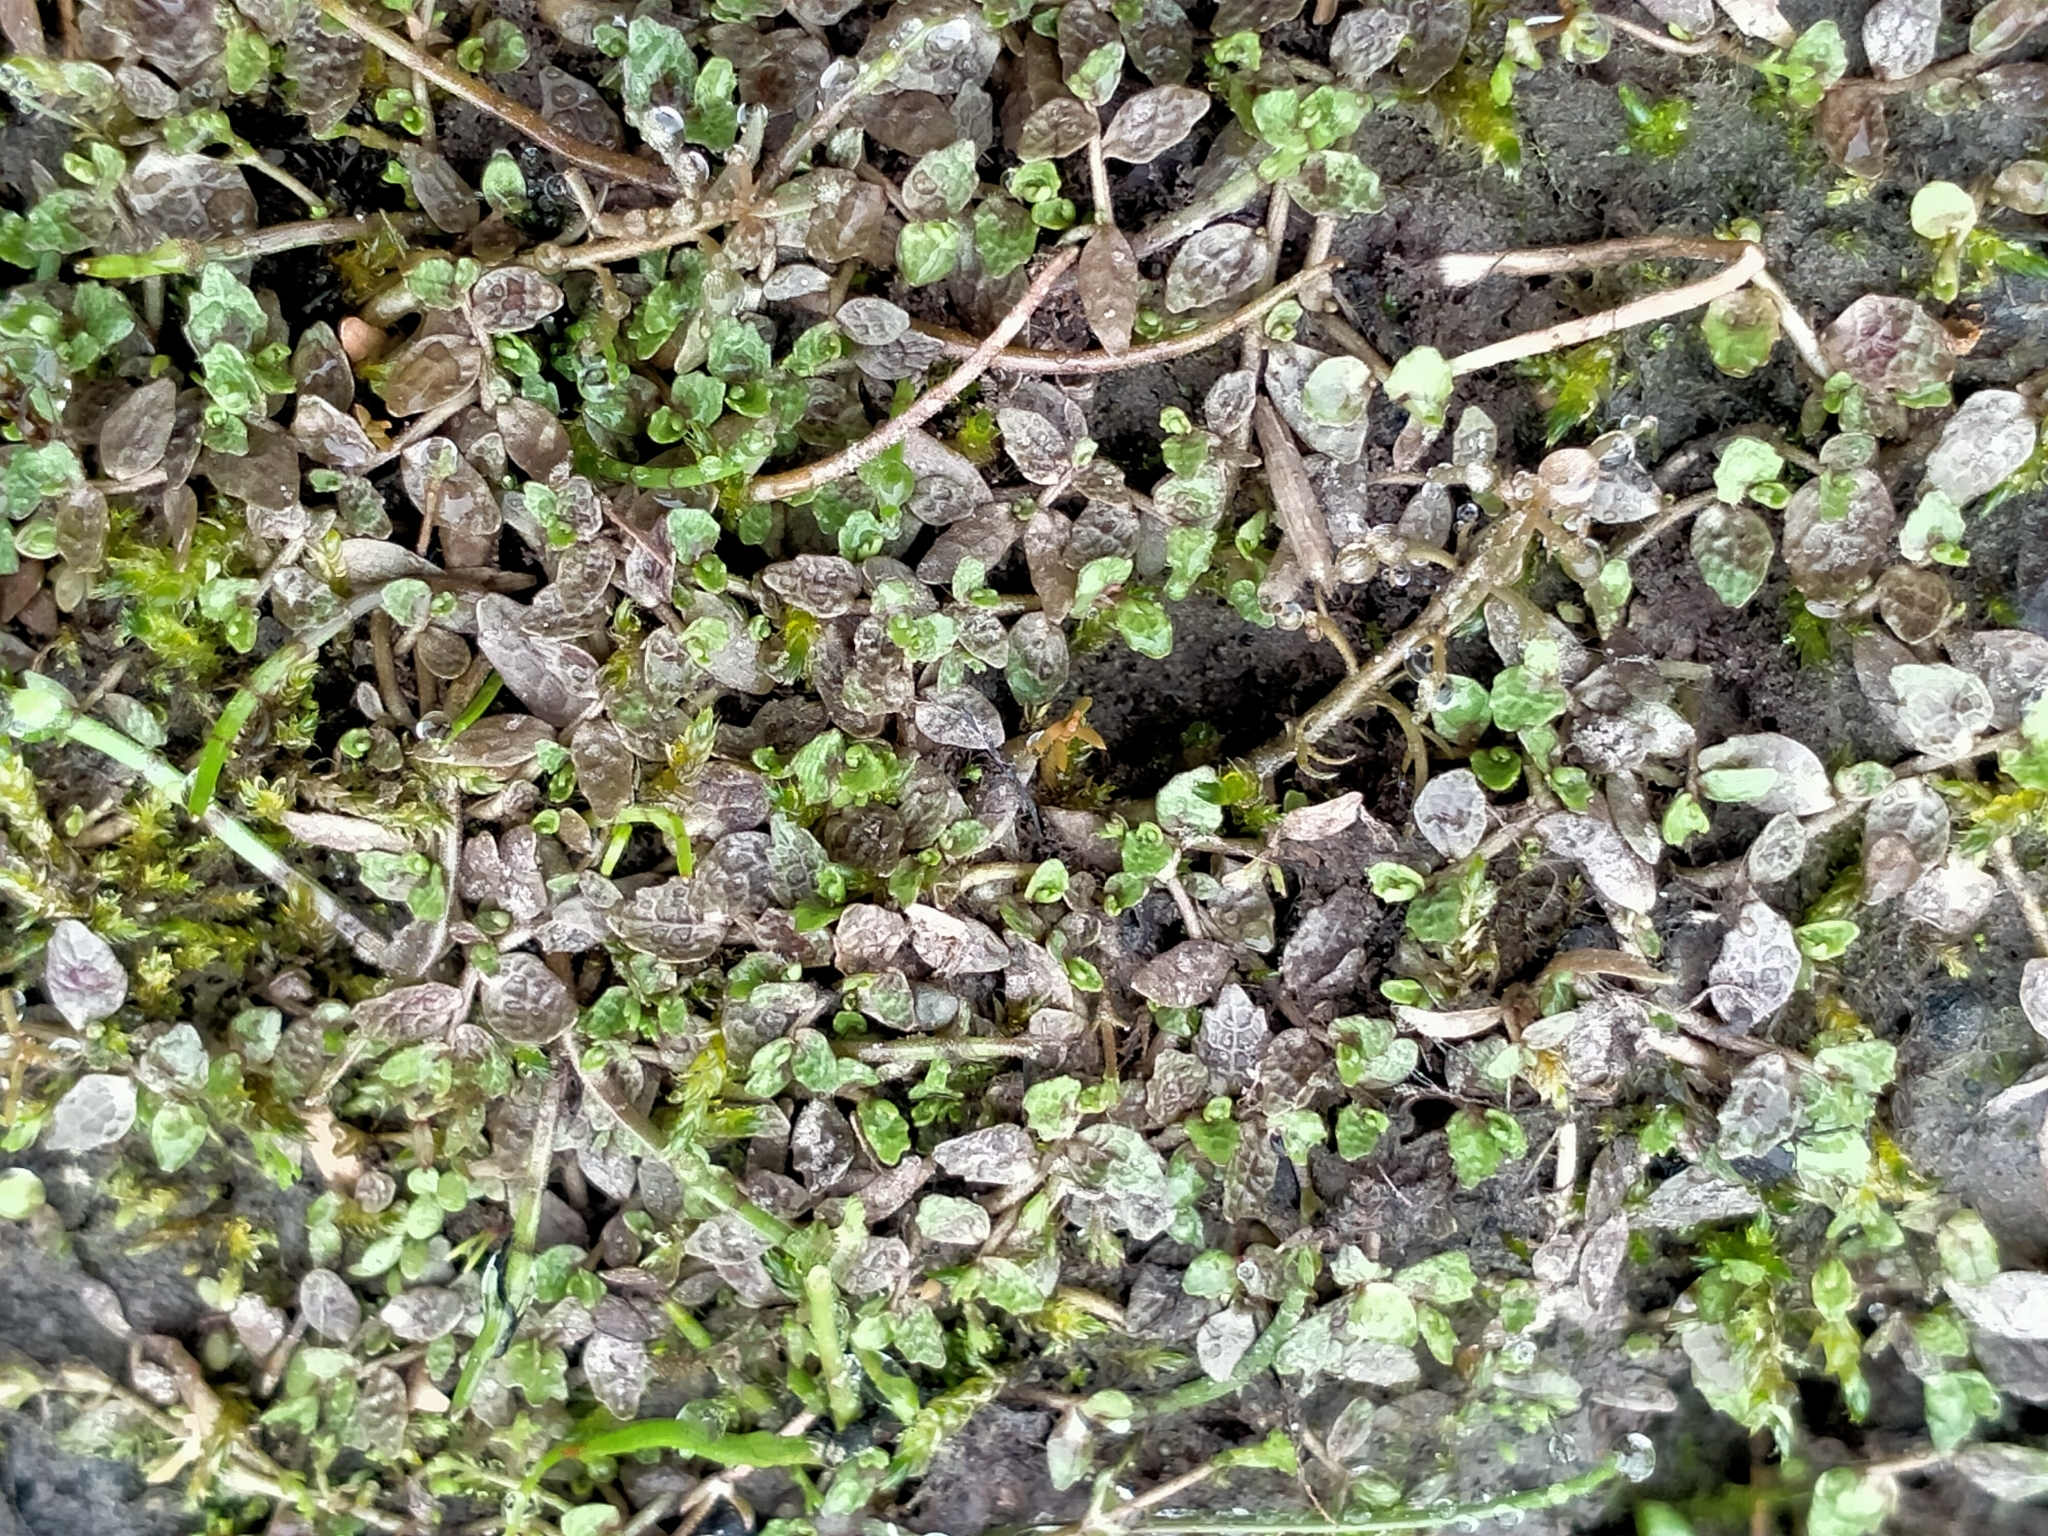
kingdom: Plantae
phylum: Tracheophyta
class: Magnoliopsida
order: Asterales
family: Campanulaceae
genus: Lobelia
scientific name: Lobelia perpusilla
